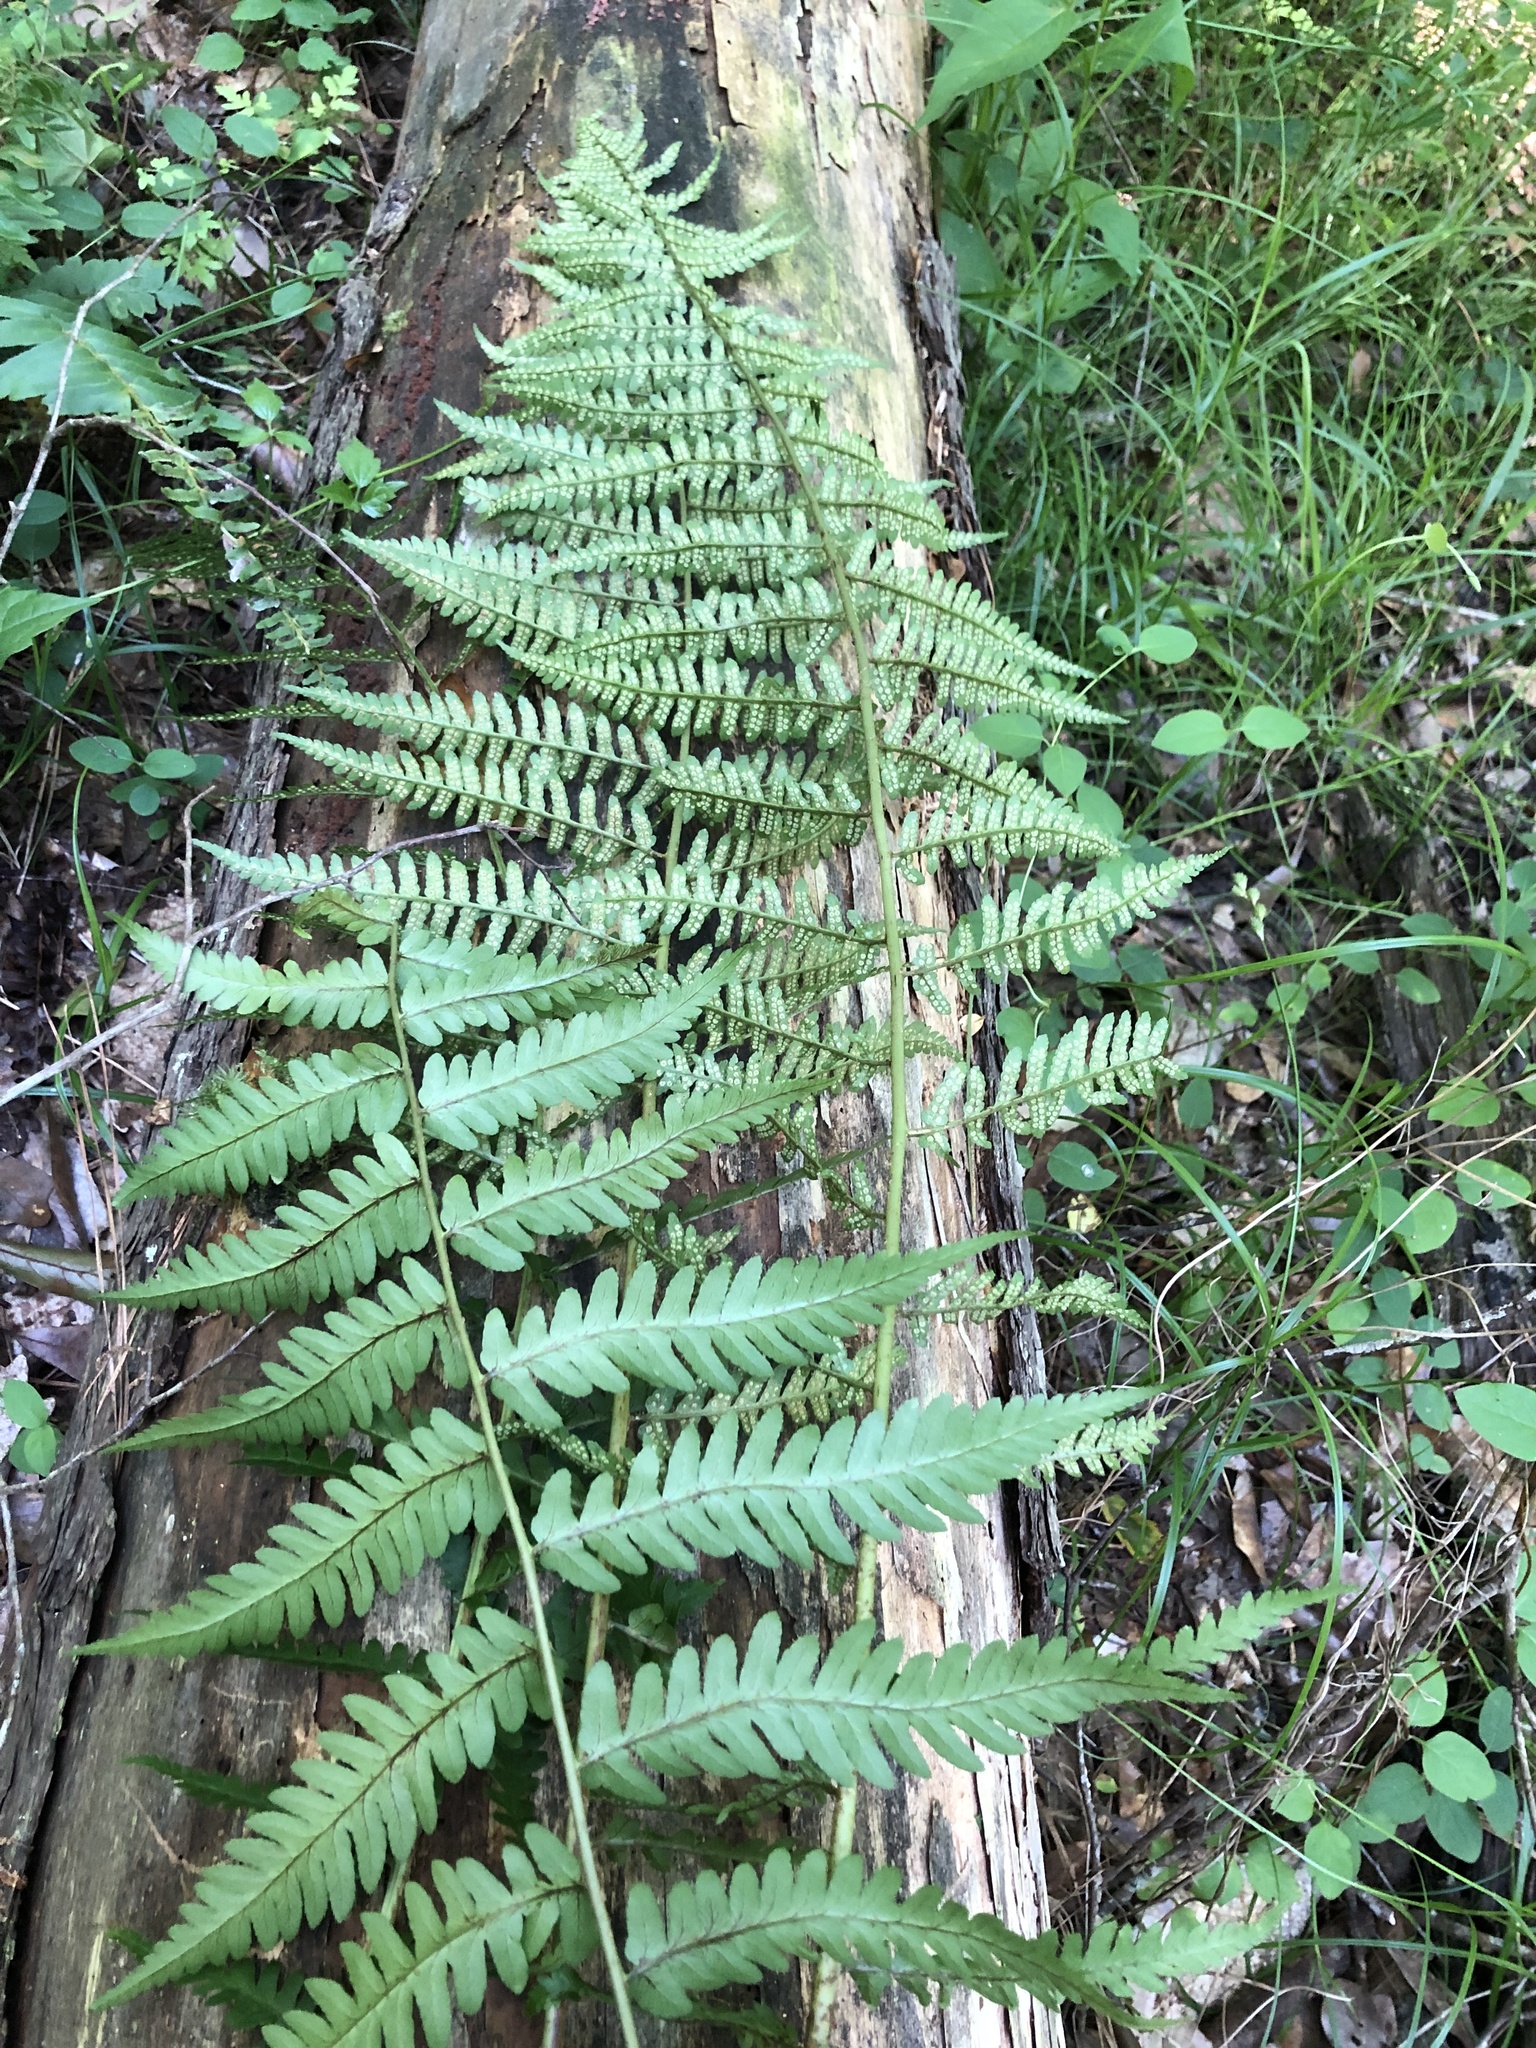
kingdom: Plantae
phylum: Tracheophyta
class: Polypodiopsida
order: Polypodiales
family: Dryopteridaceae
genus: Dryopteris
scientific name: Dryopteris ludoviciana
